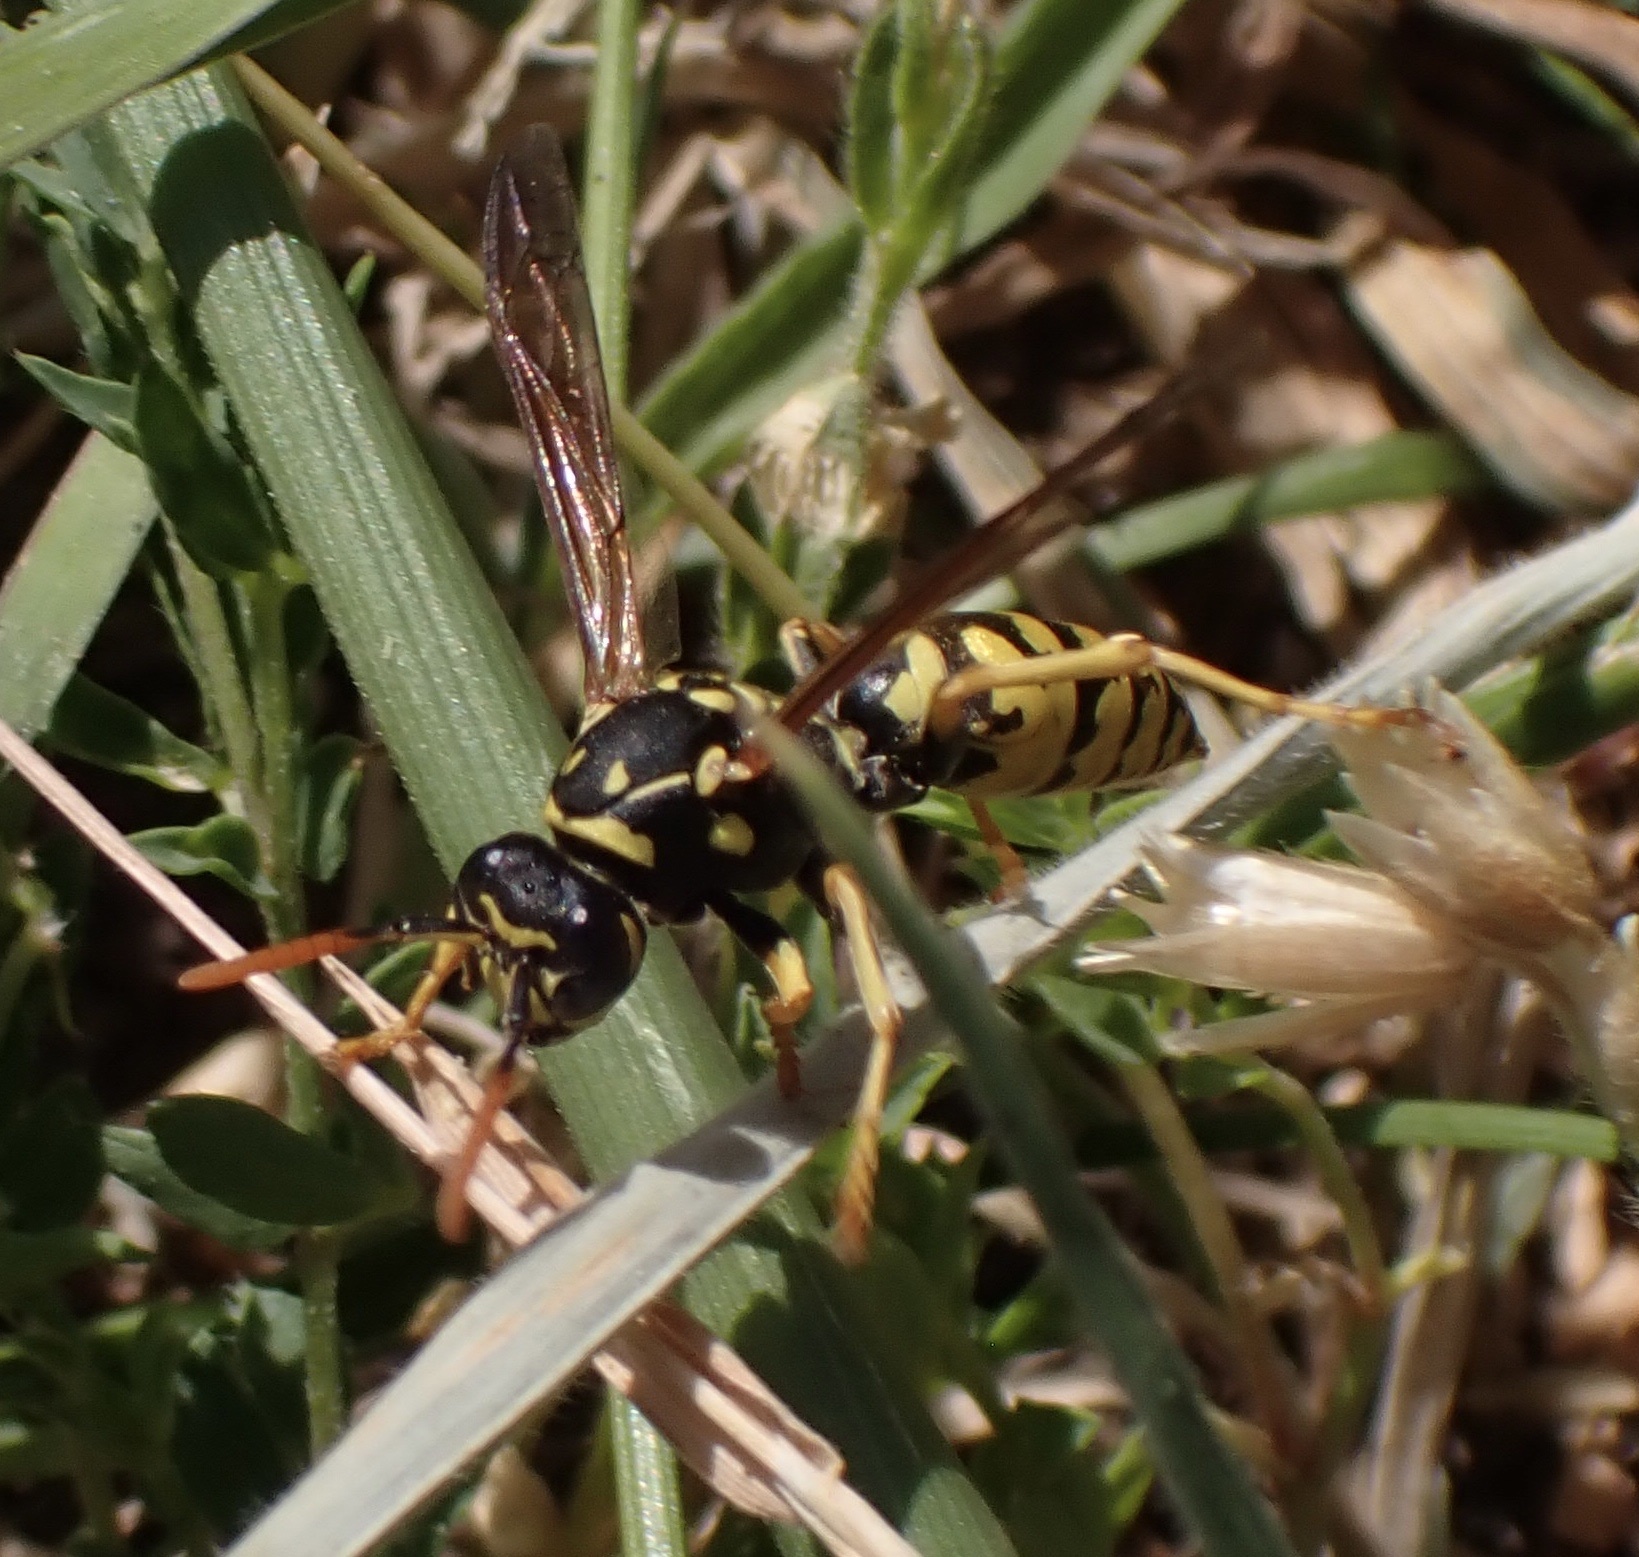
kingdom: Animalia
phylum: Arthropoda
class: Insecta
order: Hymenoptera
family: Eumenidae
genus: Polistes
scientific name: Polistes dominula
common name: Paper wasp
